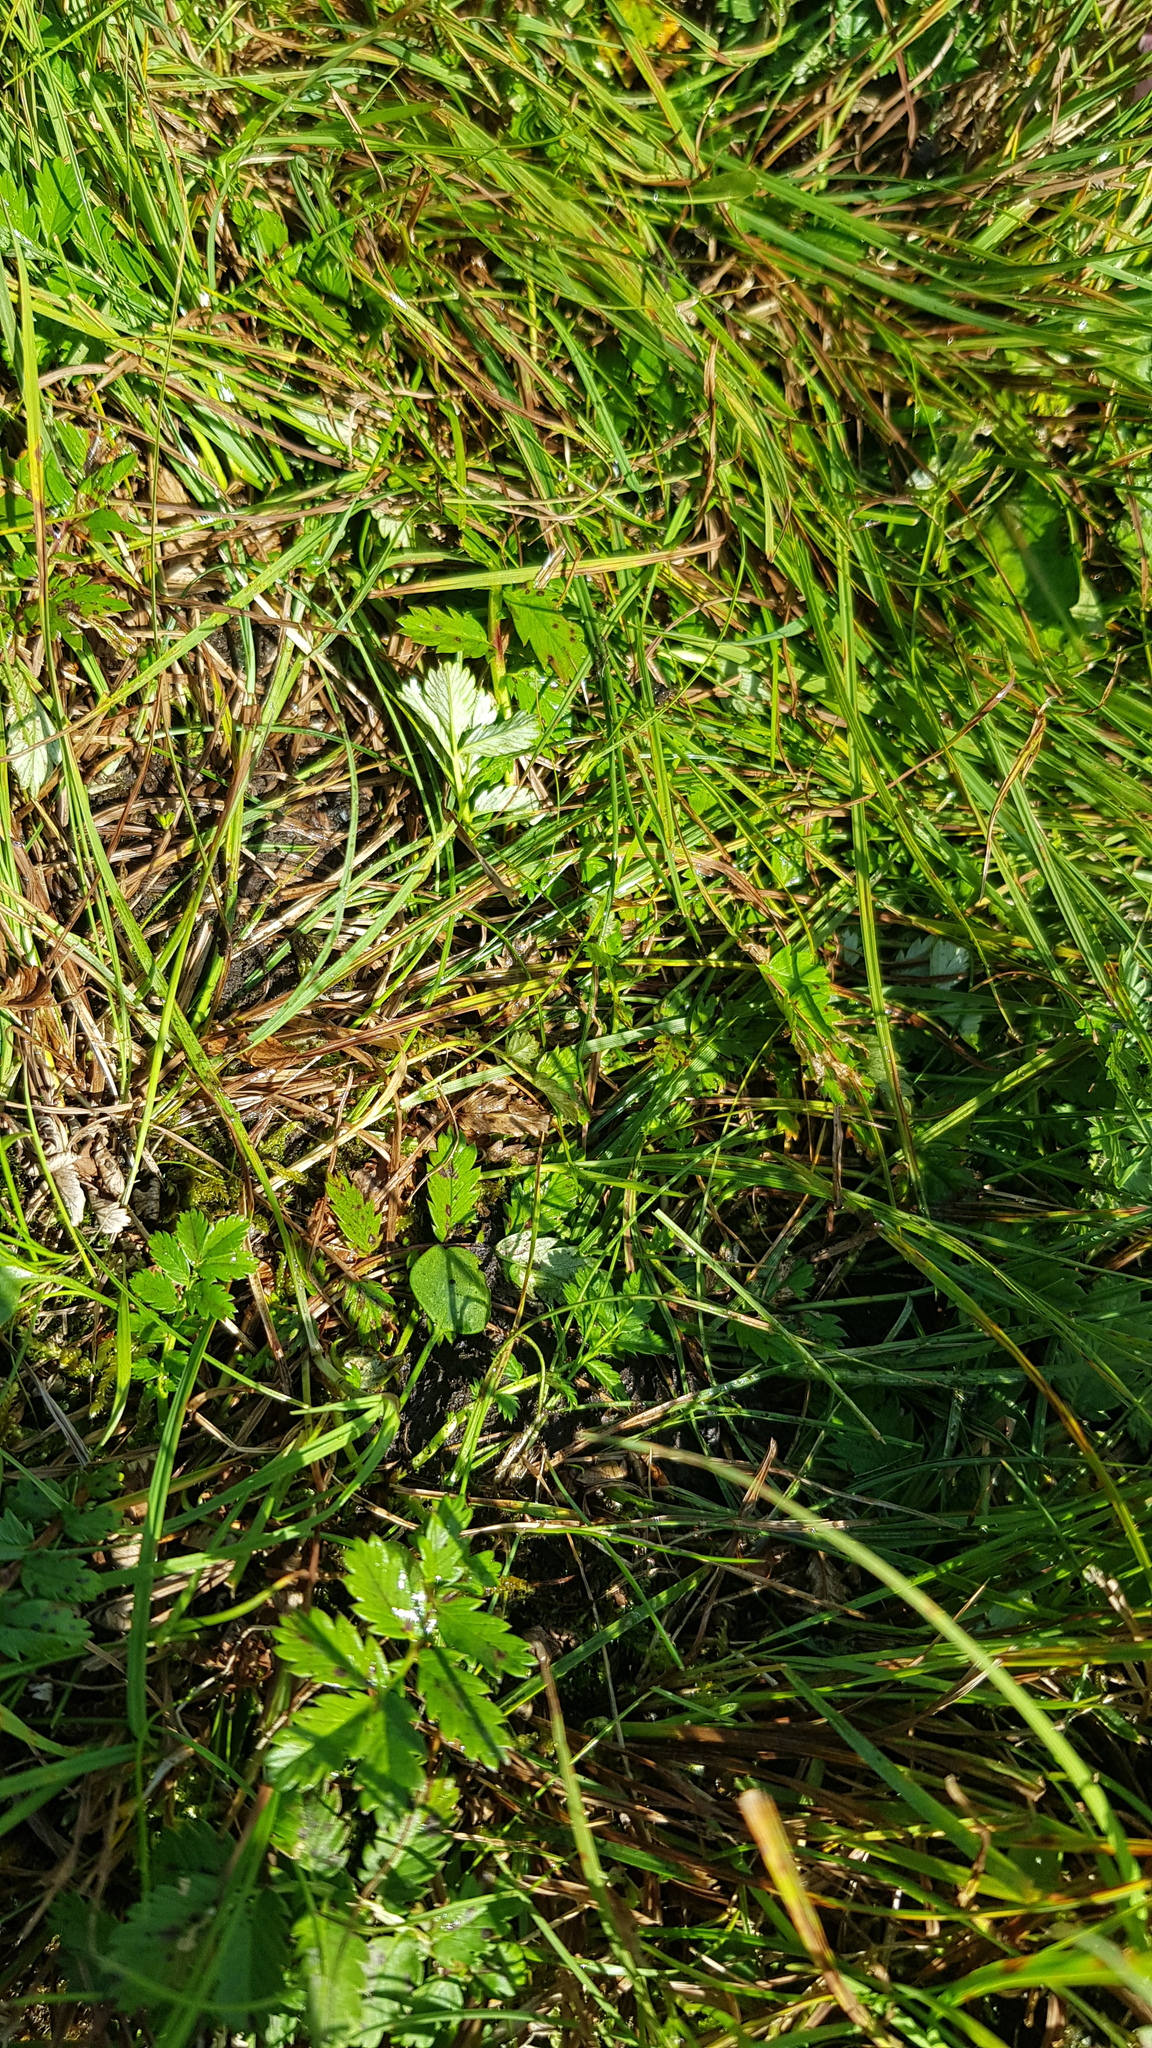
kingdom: Plantae
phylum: Tracheophyta
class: Magnoliopsida
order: Rosales
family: Rosaceae
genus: Argentina
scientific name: Argentina anserina
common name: Common silverweed
